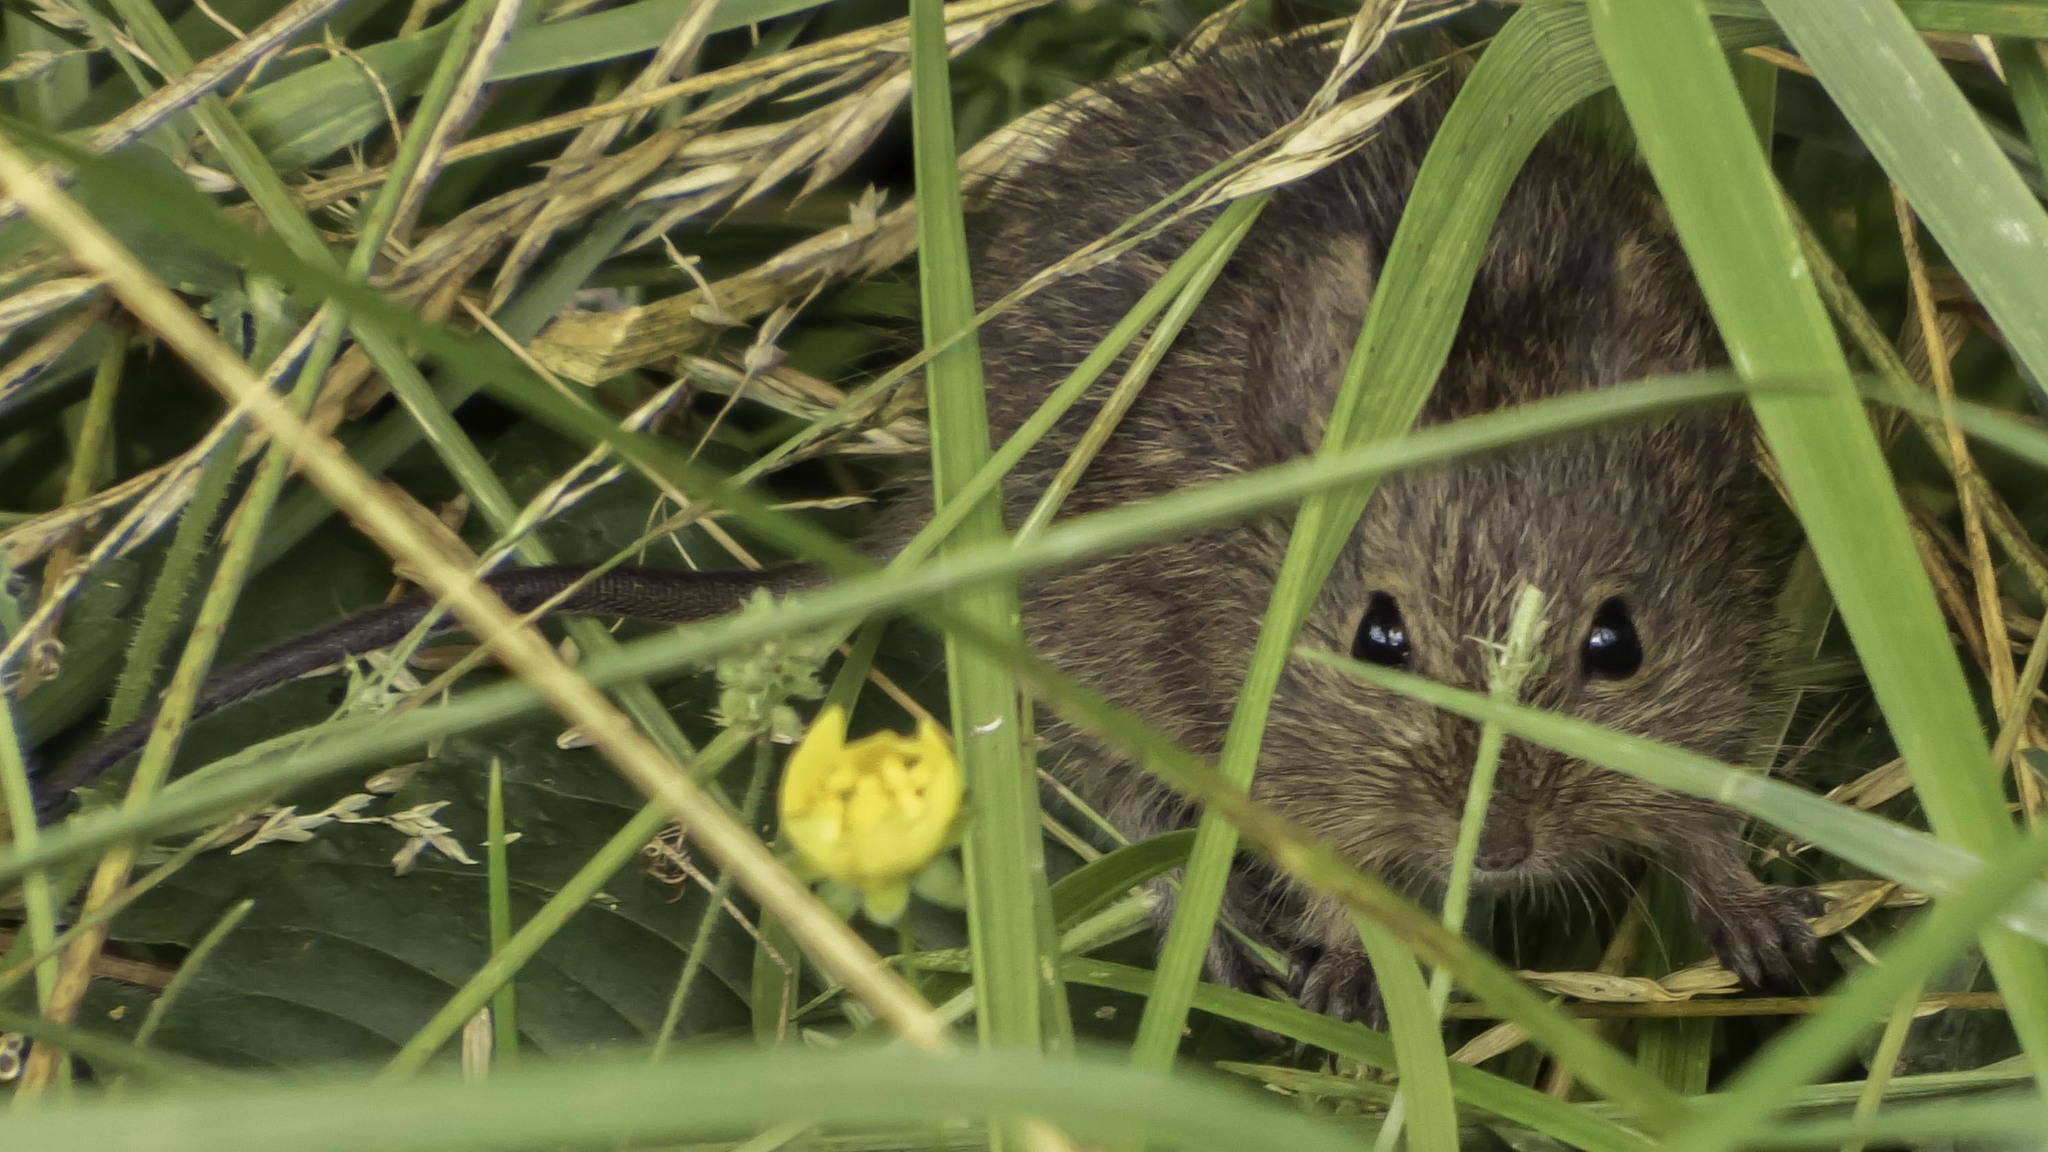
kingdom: Animalia
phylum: Chordata
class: Mammalia
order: Rodentia
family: Cricetidae
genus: Sigmodon
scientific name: Sigmodon hispidus
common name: Hispid cotton rat
